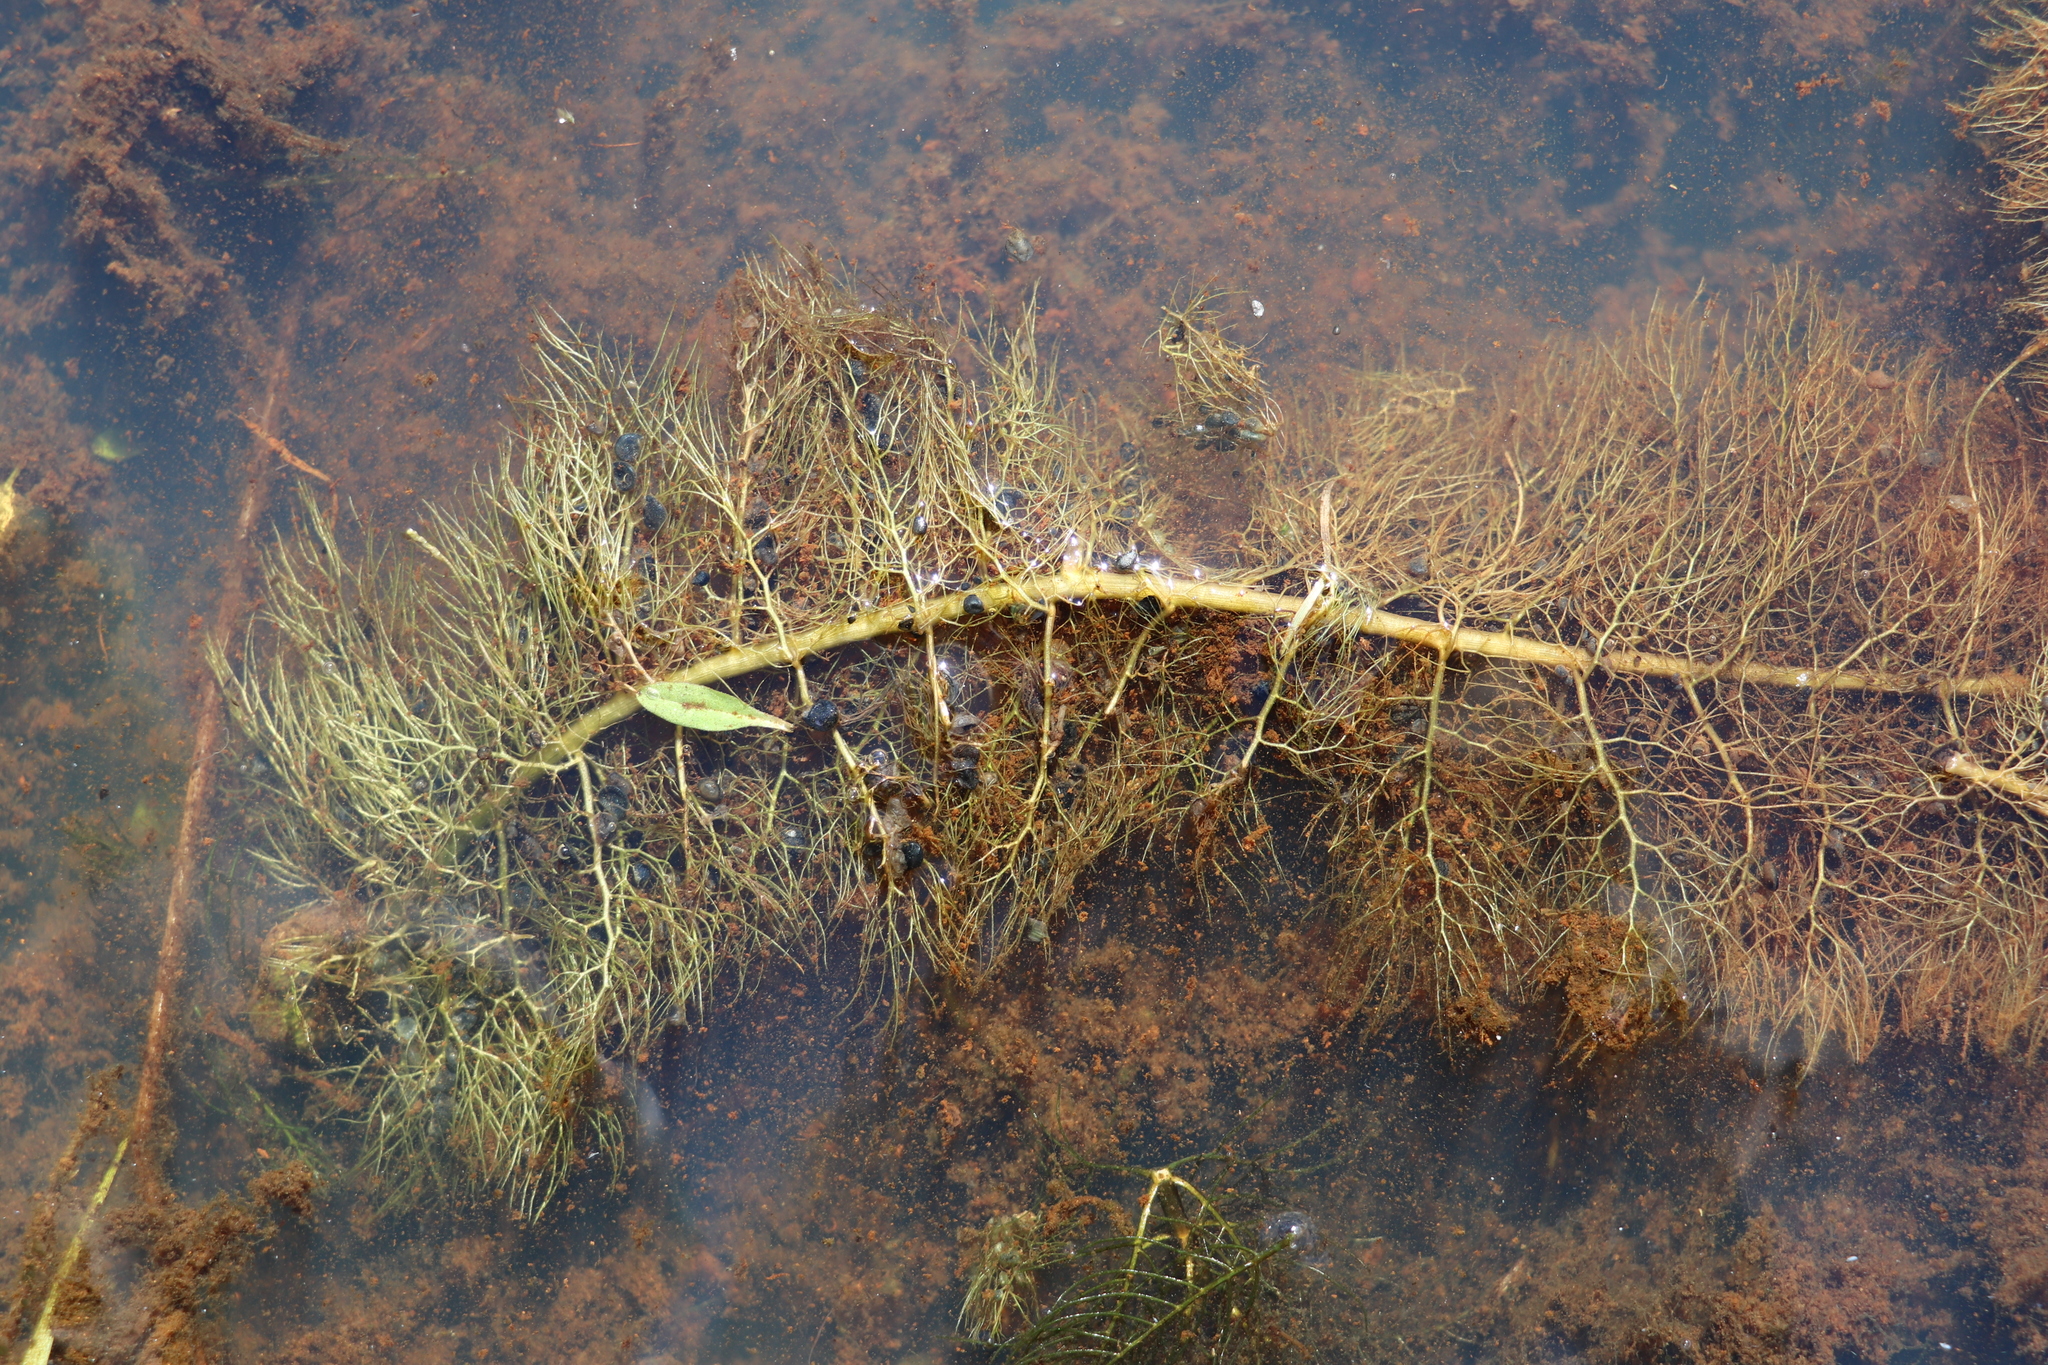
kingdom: Plantae
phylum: Tracheophyta
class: Magnoliopsida
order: Lamiales
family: Lentibulariaceae
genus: Utricularia
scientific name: Utricularia vulgaris
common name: Greater bladderwort
